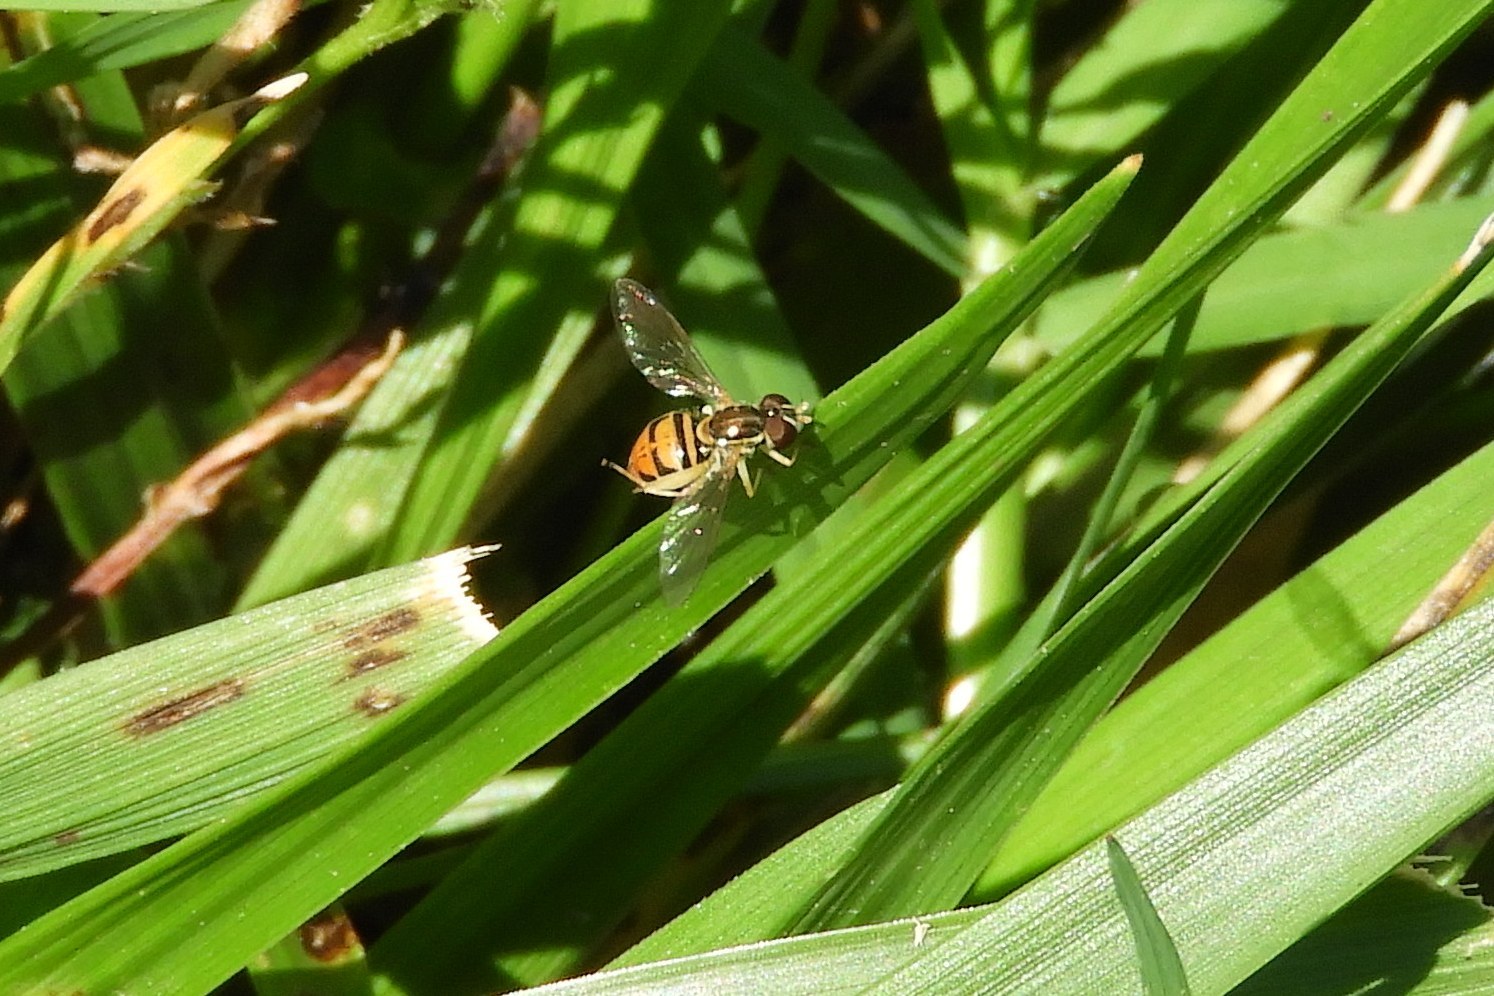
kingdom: Animalia
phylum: Arthropoda
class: Insecta
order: Diptera
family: Syrphidae
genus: Toxomerus
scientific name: Toxomerus marginatus
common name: Syrphid fly
